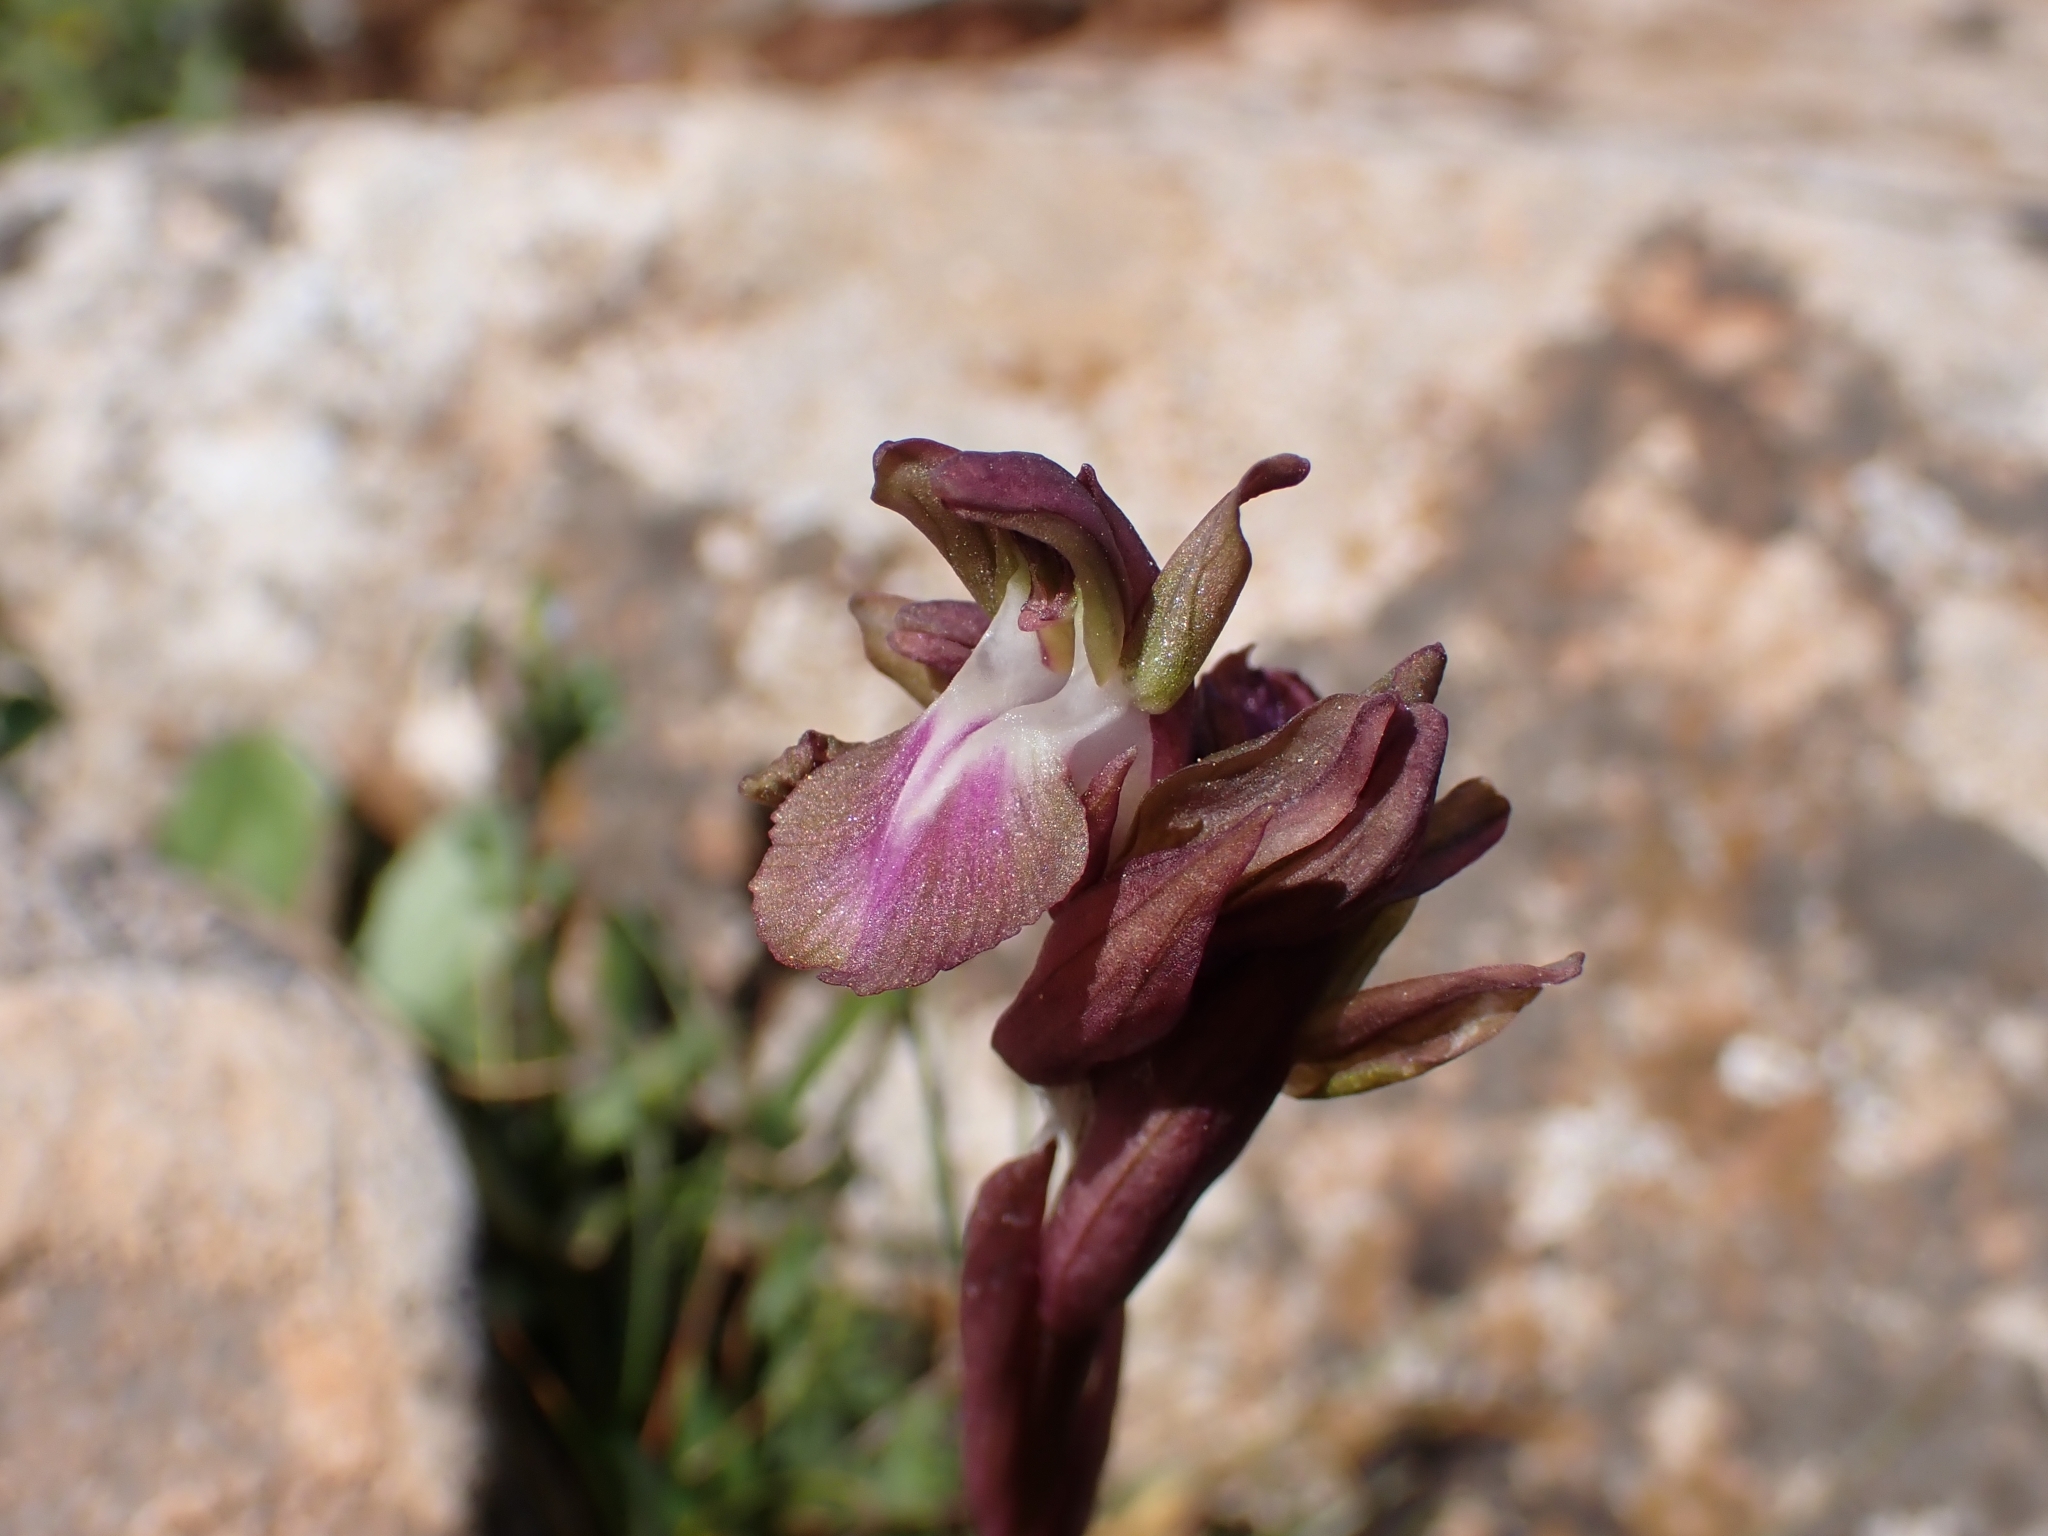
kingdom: Plantae
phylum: Tracheophyta
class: Liliopsida
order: Asparagales
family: Orchidaceae
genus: Anacamptis
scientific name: Anacamptis collina
